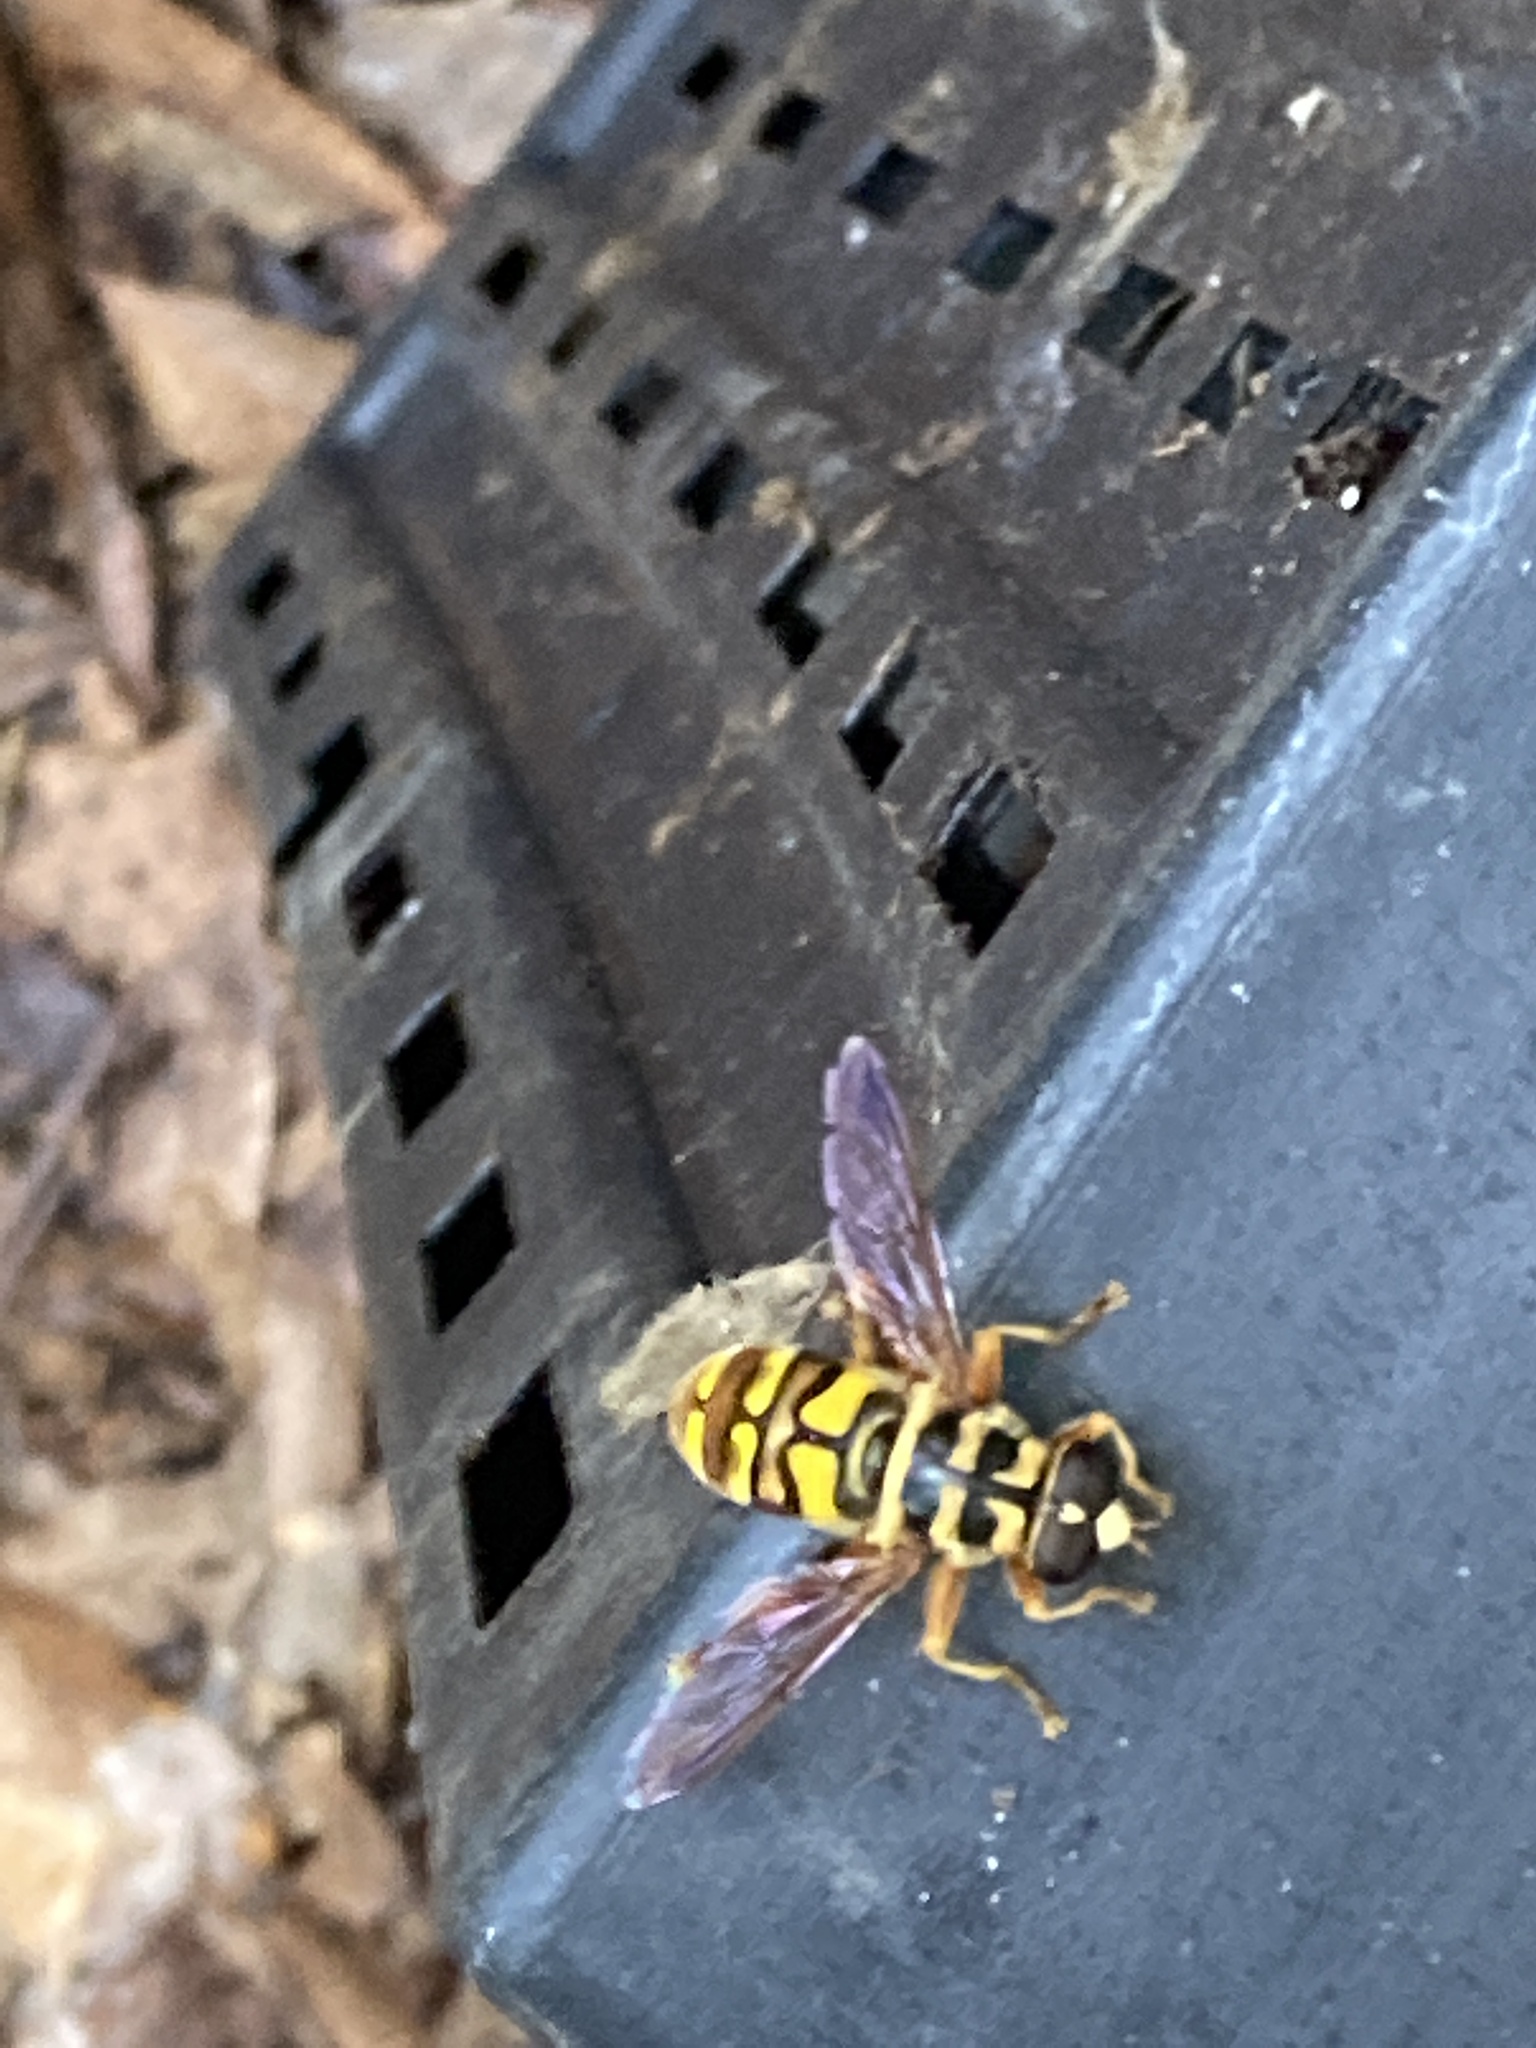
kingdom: Animalia
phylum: Arthropoda
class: Insecta
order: Diptera
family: Syrphidae
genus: Milesia
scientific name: Milesia virginiensis
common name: Virginia giant
